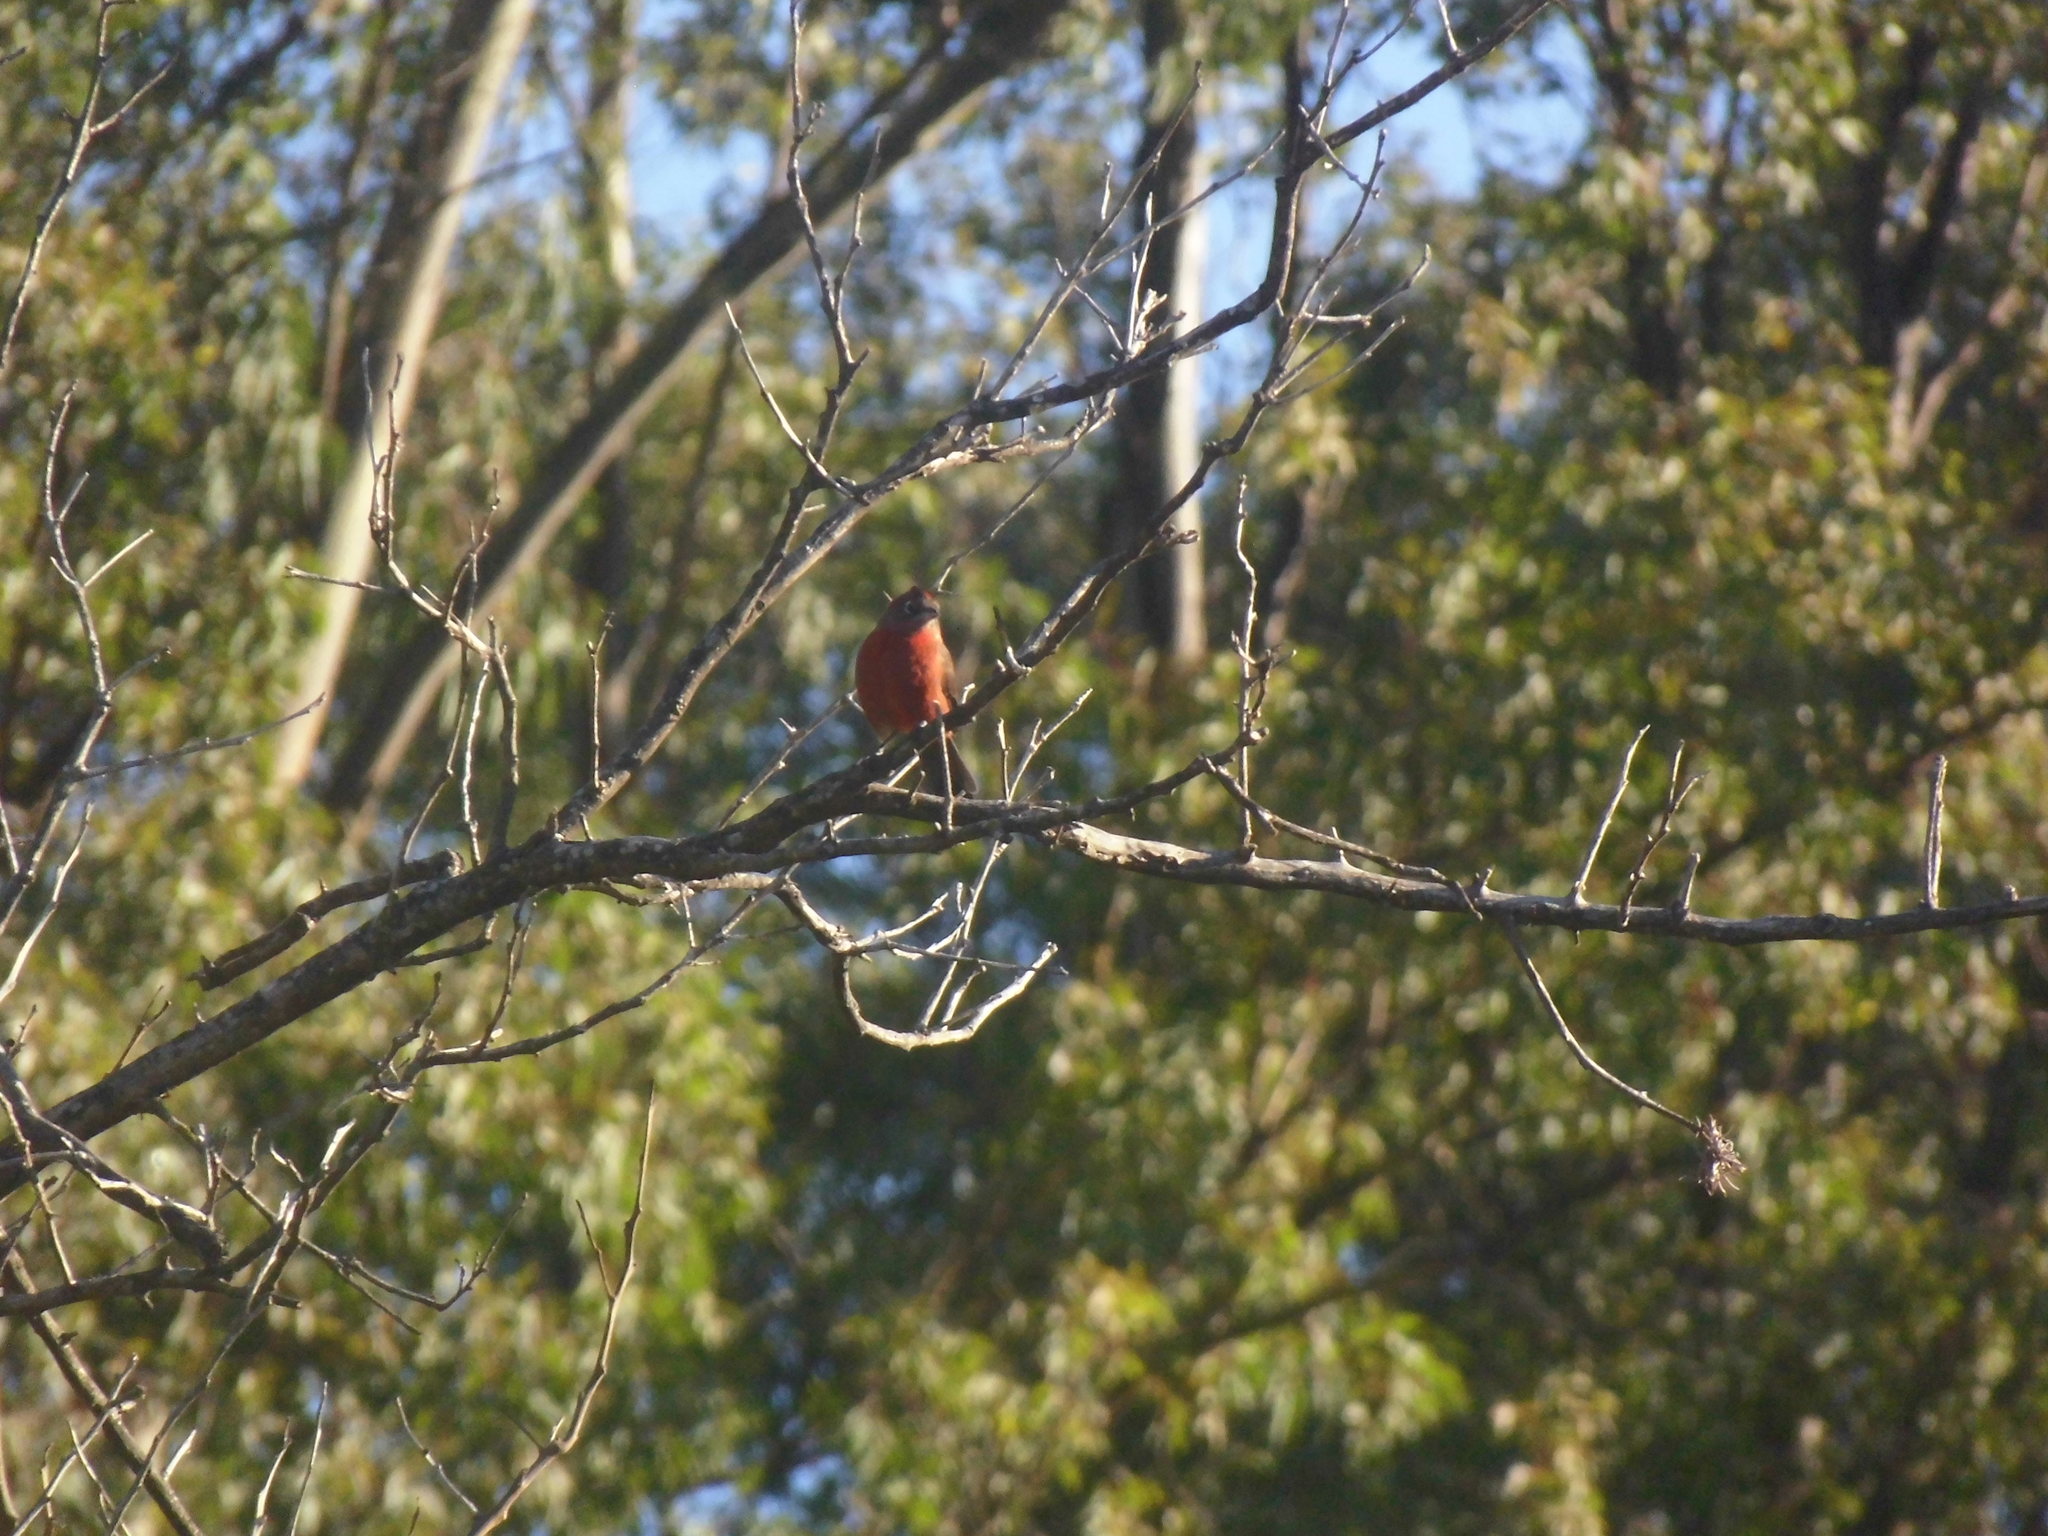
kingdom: Animalia
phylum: Chordata
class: Aves
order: Passeriformes
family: Thraupidae
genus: Coryphospingus
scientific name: Coryphospingus cucullatus
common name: Red pileated finch
